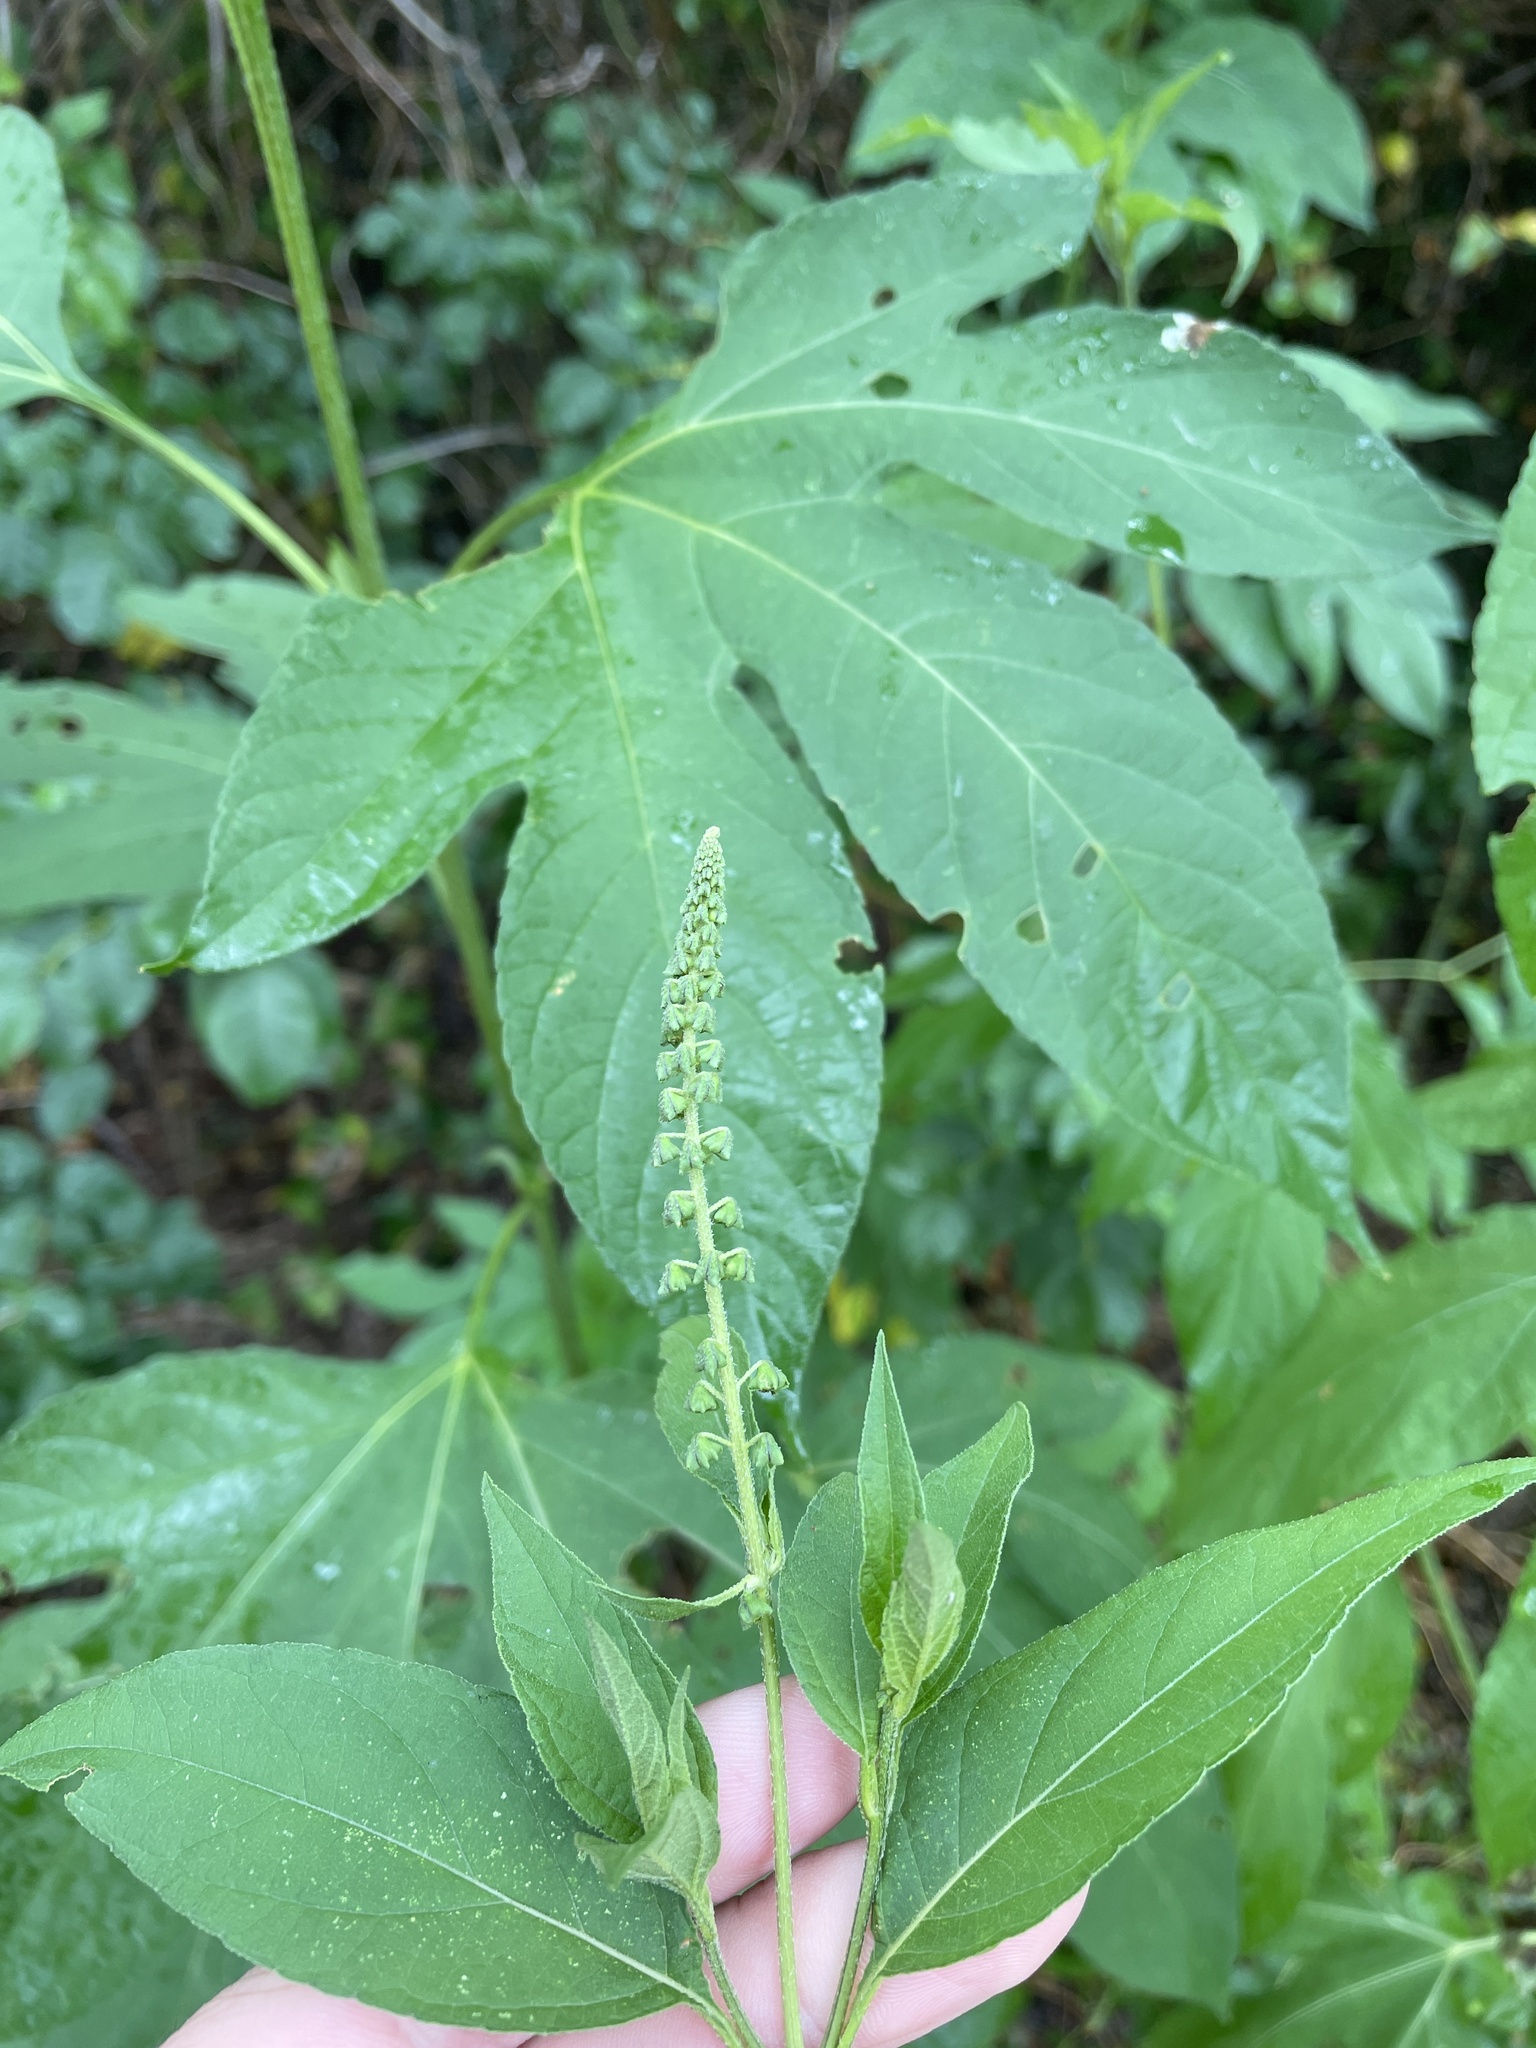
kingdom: Plantae
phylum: Tracheophyta
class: Magnoliopsida
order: Asterales
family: Asteraceae
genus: Ambrosia
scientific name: Ambrosia trifida
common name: Giant ragweed
